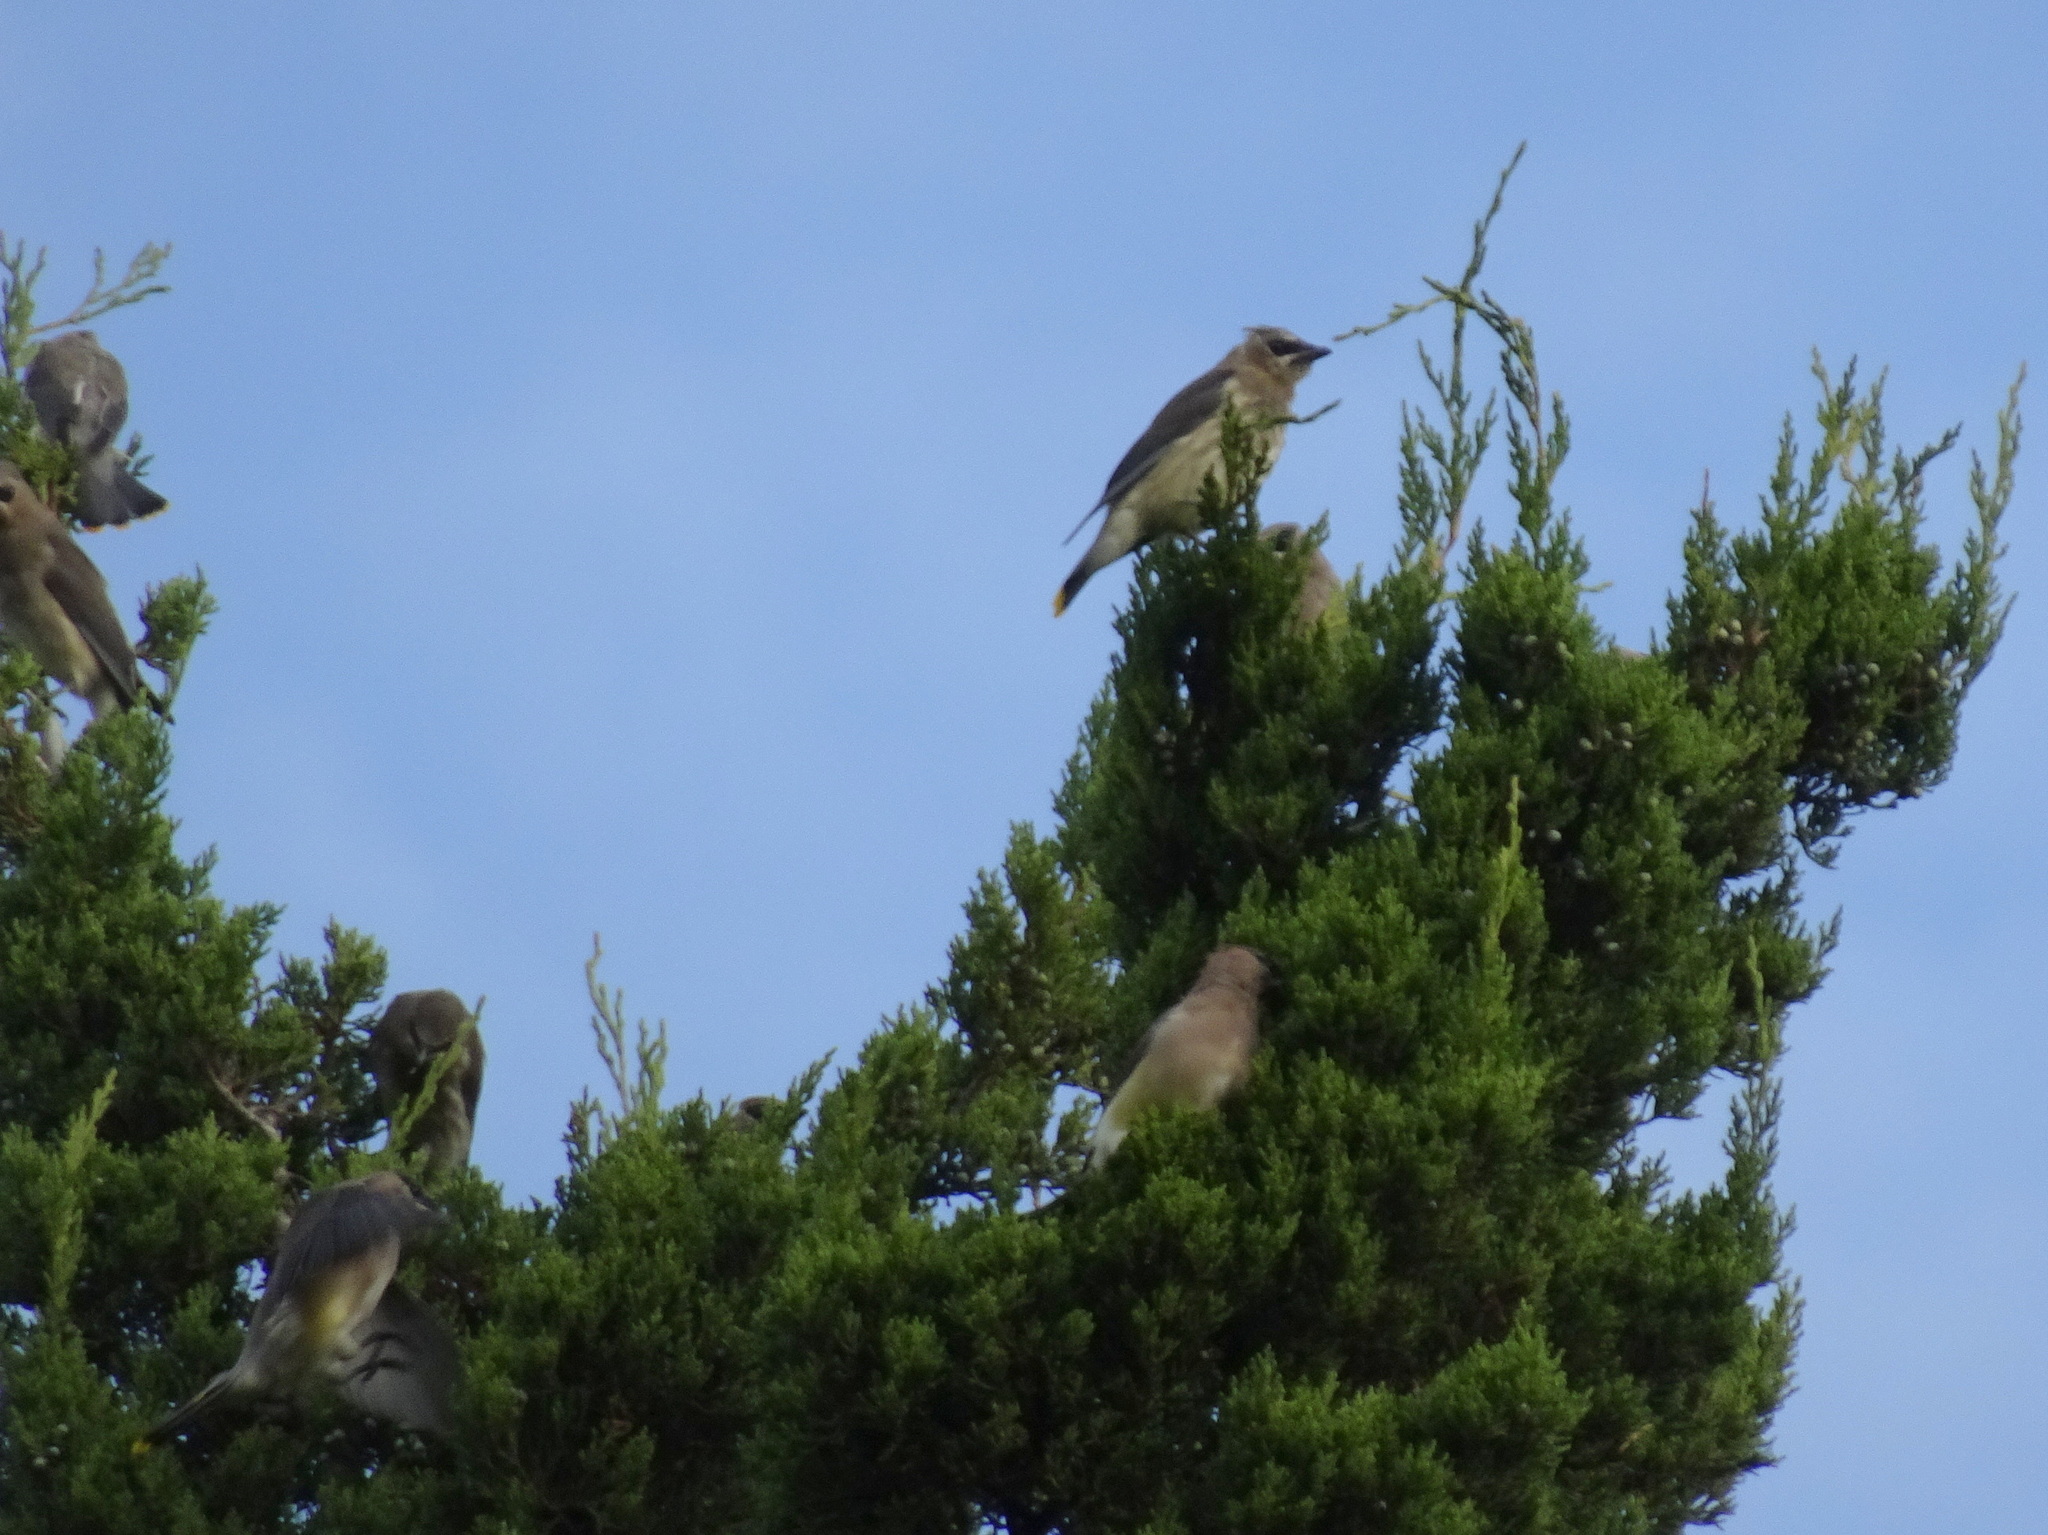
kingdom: Animalia
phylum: Chordata
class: Aves
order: Passeriformes
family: Bombycillidae
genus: Bombycilla
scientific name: Bombycilla cedrorum
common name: Cedar waxwing
